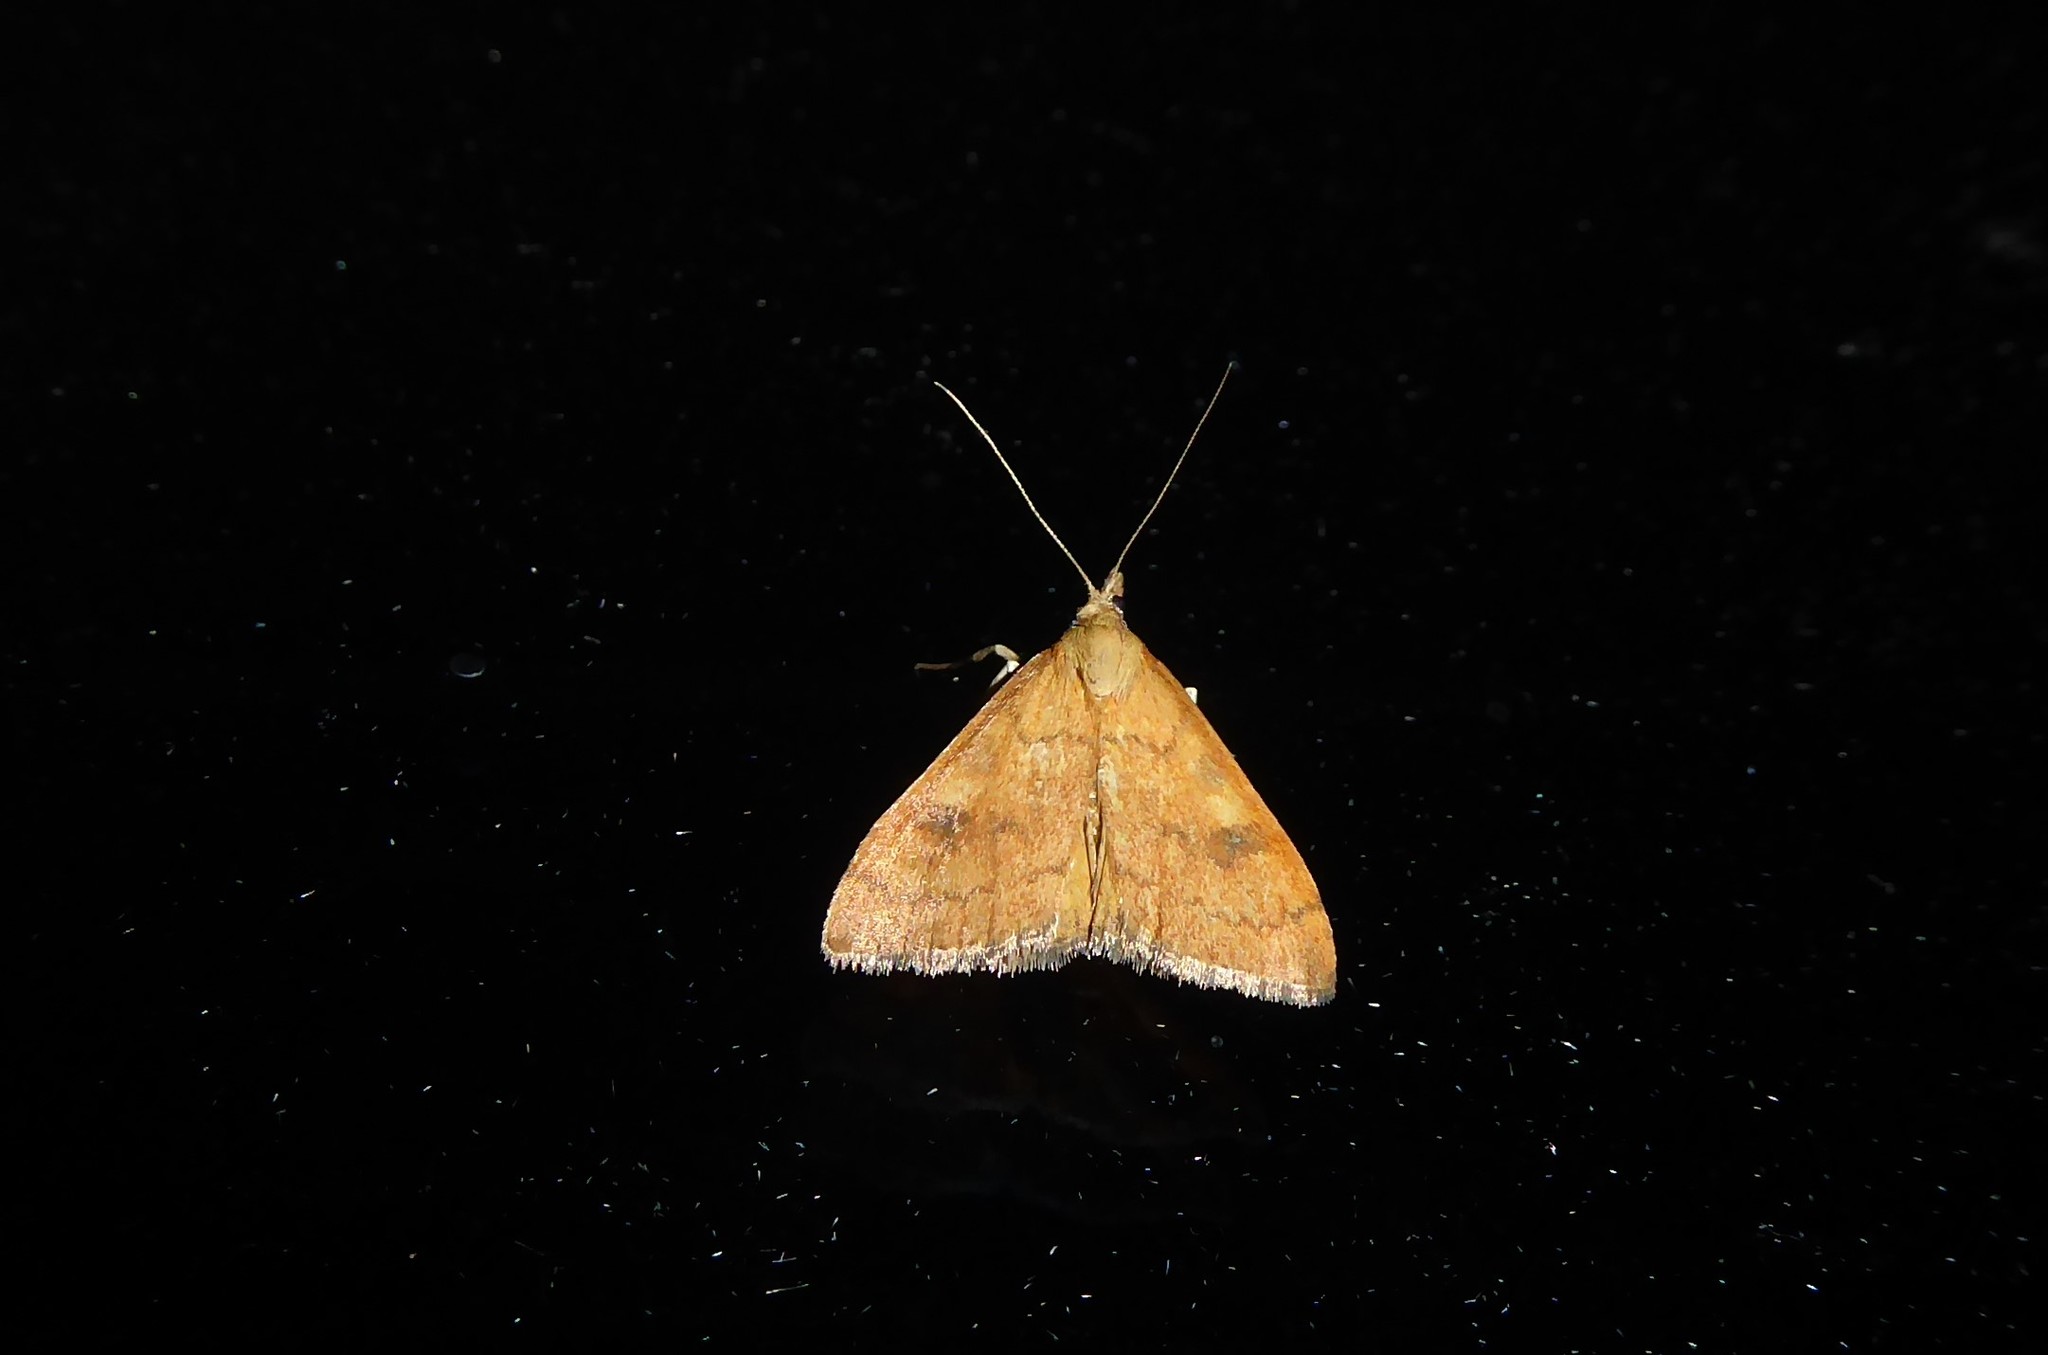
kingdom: Animalia
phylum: Arthropoda
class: Insecta
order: Lepidoptera
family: Crambidae
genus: Udea
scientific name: Udea Mnesictena flavidalis
